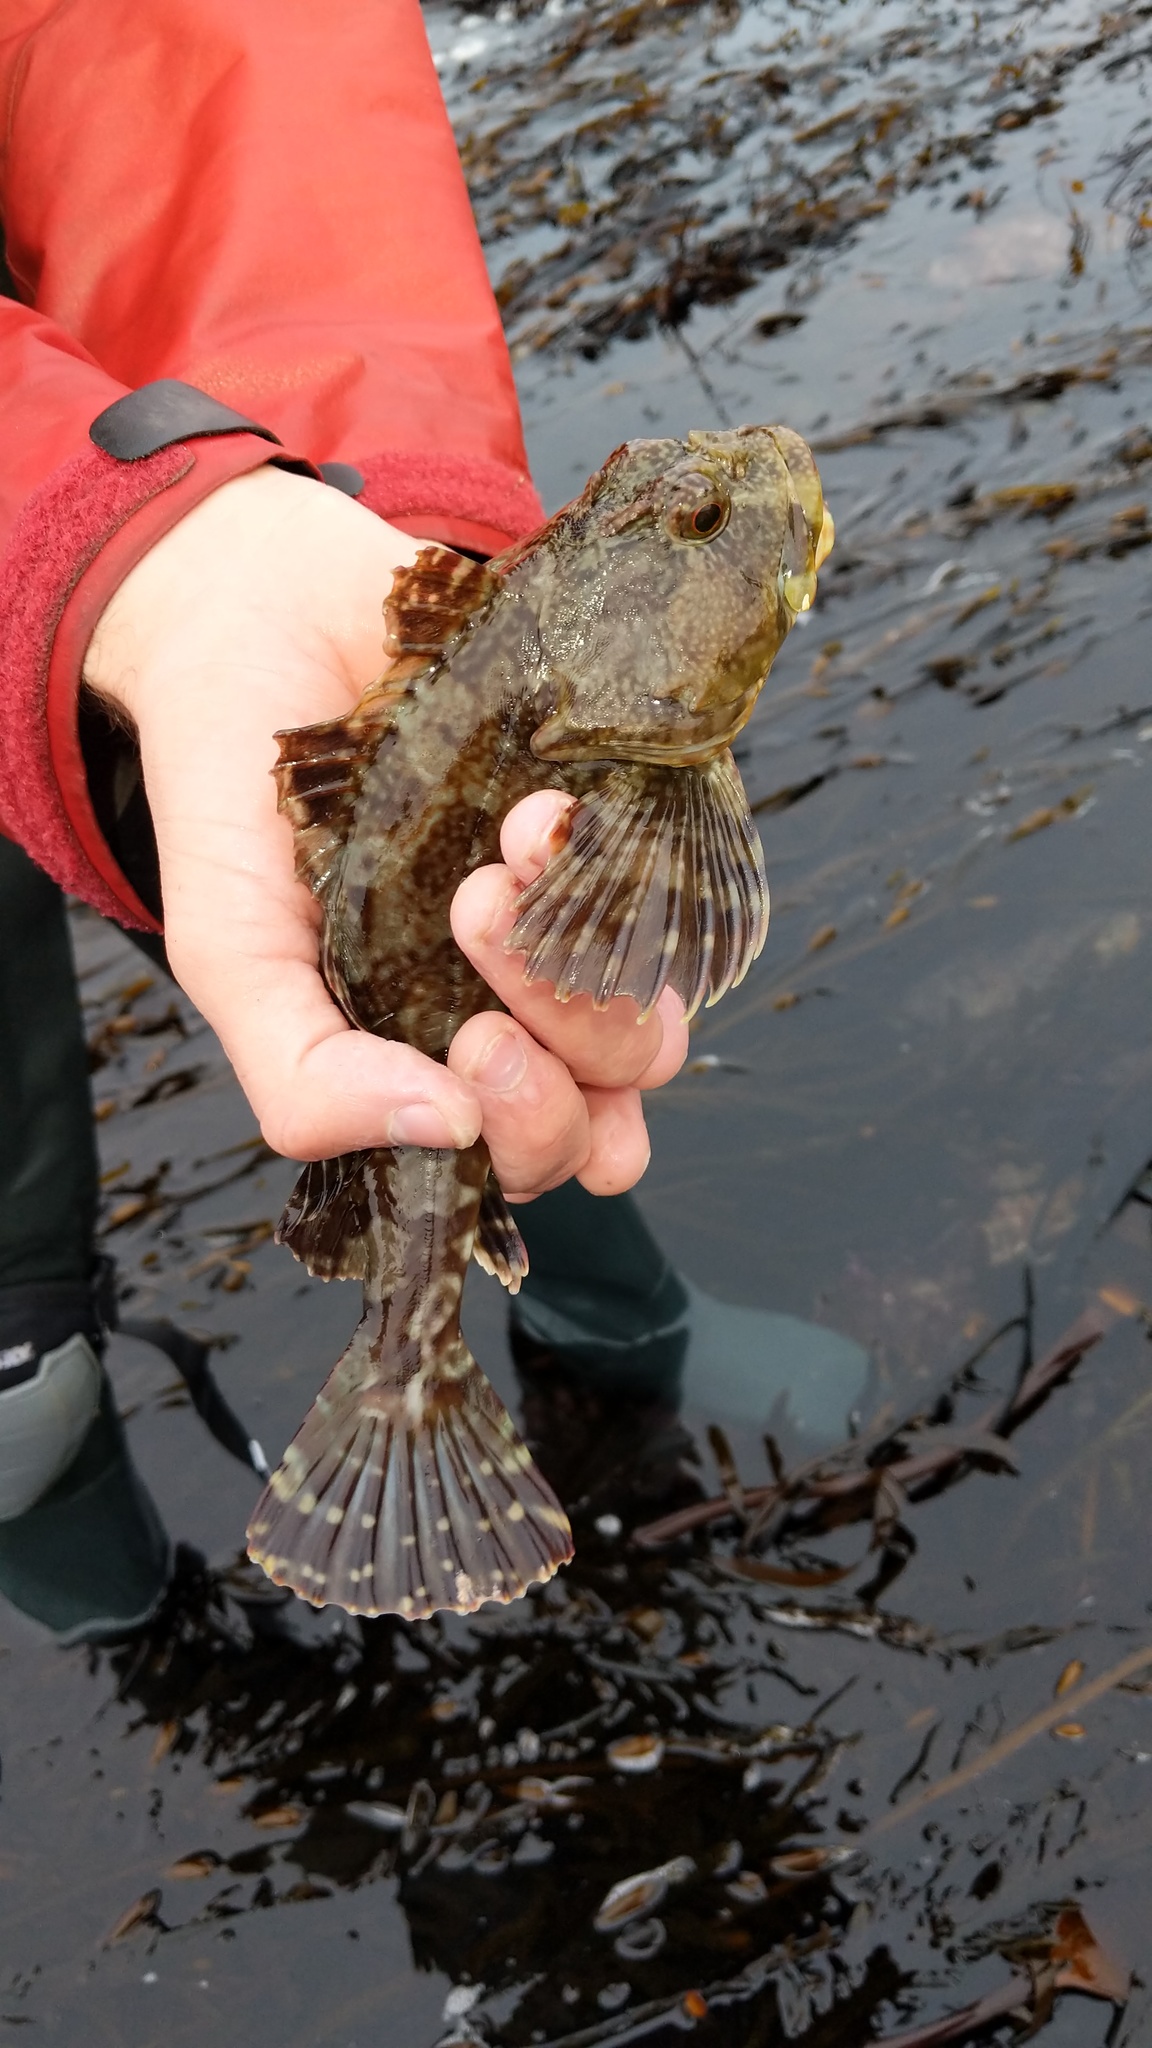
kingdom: Animalia
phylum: Chordata
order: Scorpaeniformes
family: Cottidae
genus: Scorpaenichthys
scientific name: Scorpaenichthys marmoratus
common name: Cabezon
